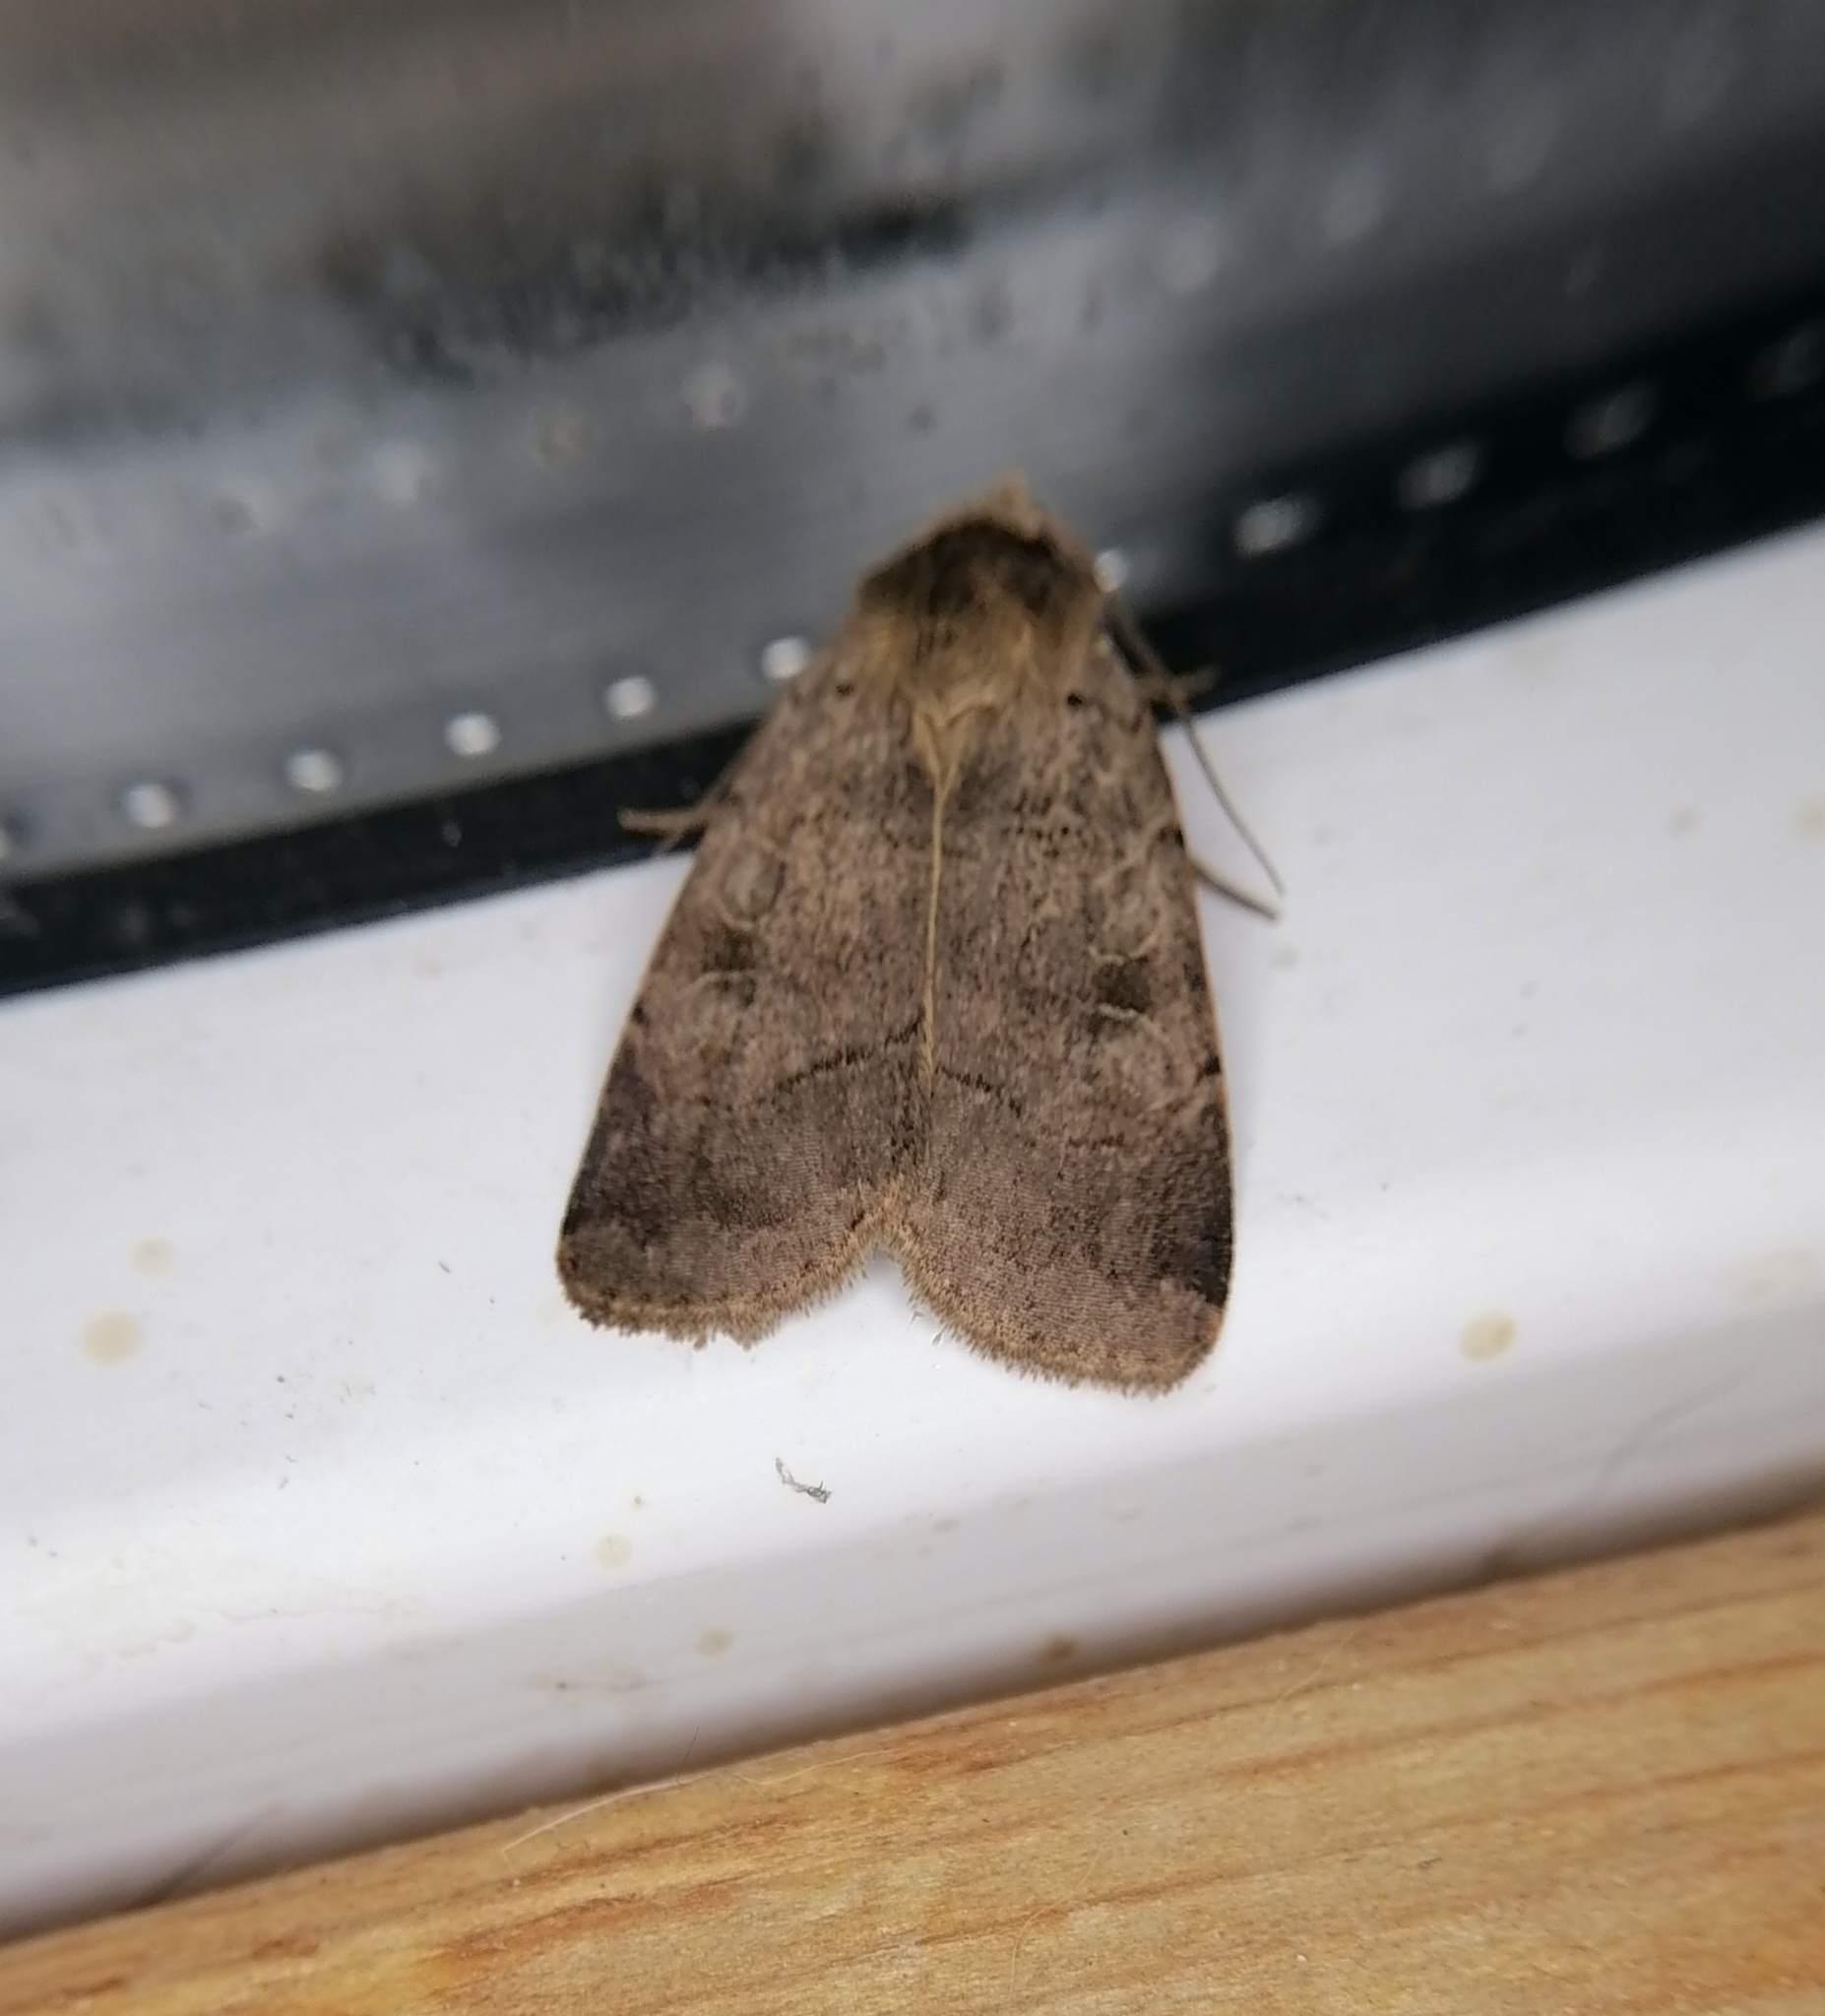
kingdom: Animalia
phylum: Arthropoda
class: Insecta
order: Lepidoptera
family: Noctuidae
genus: Sineugraphe
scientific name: Sineugraphe exusta
